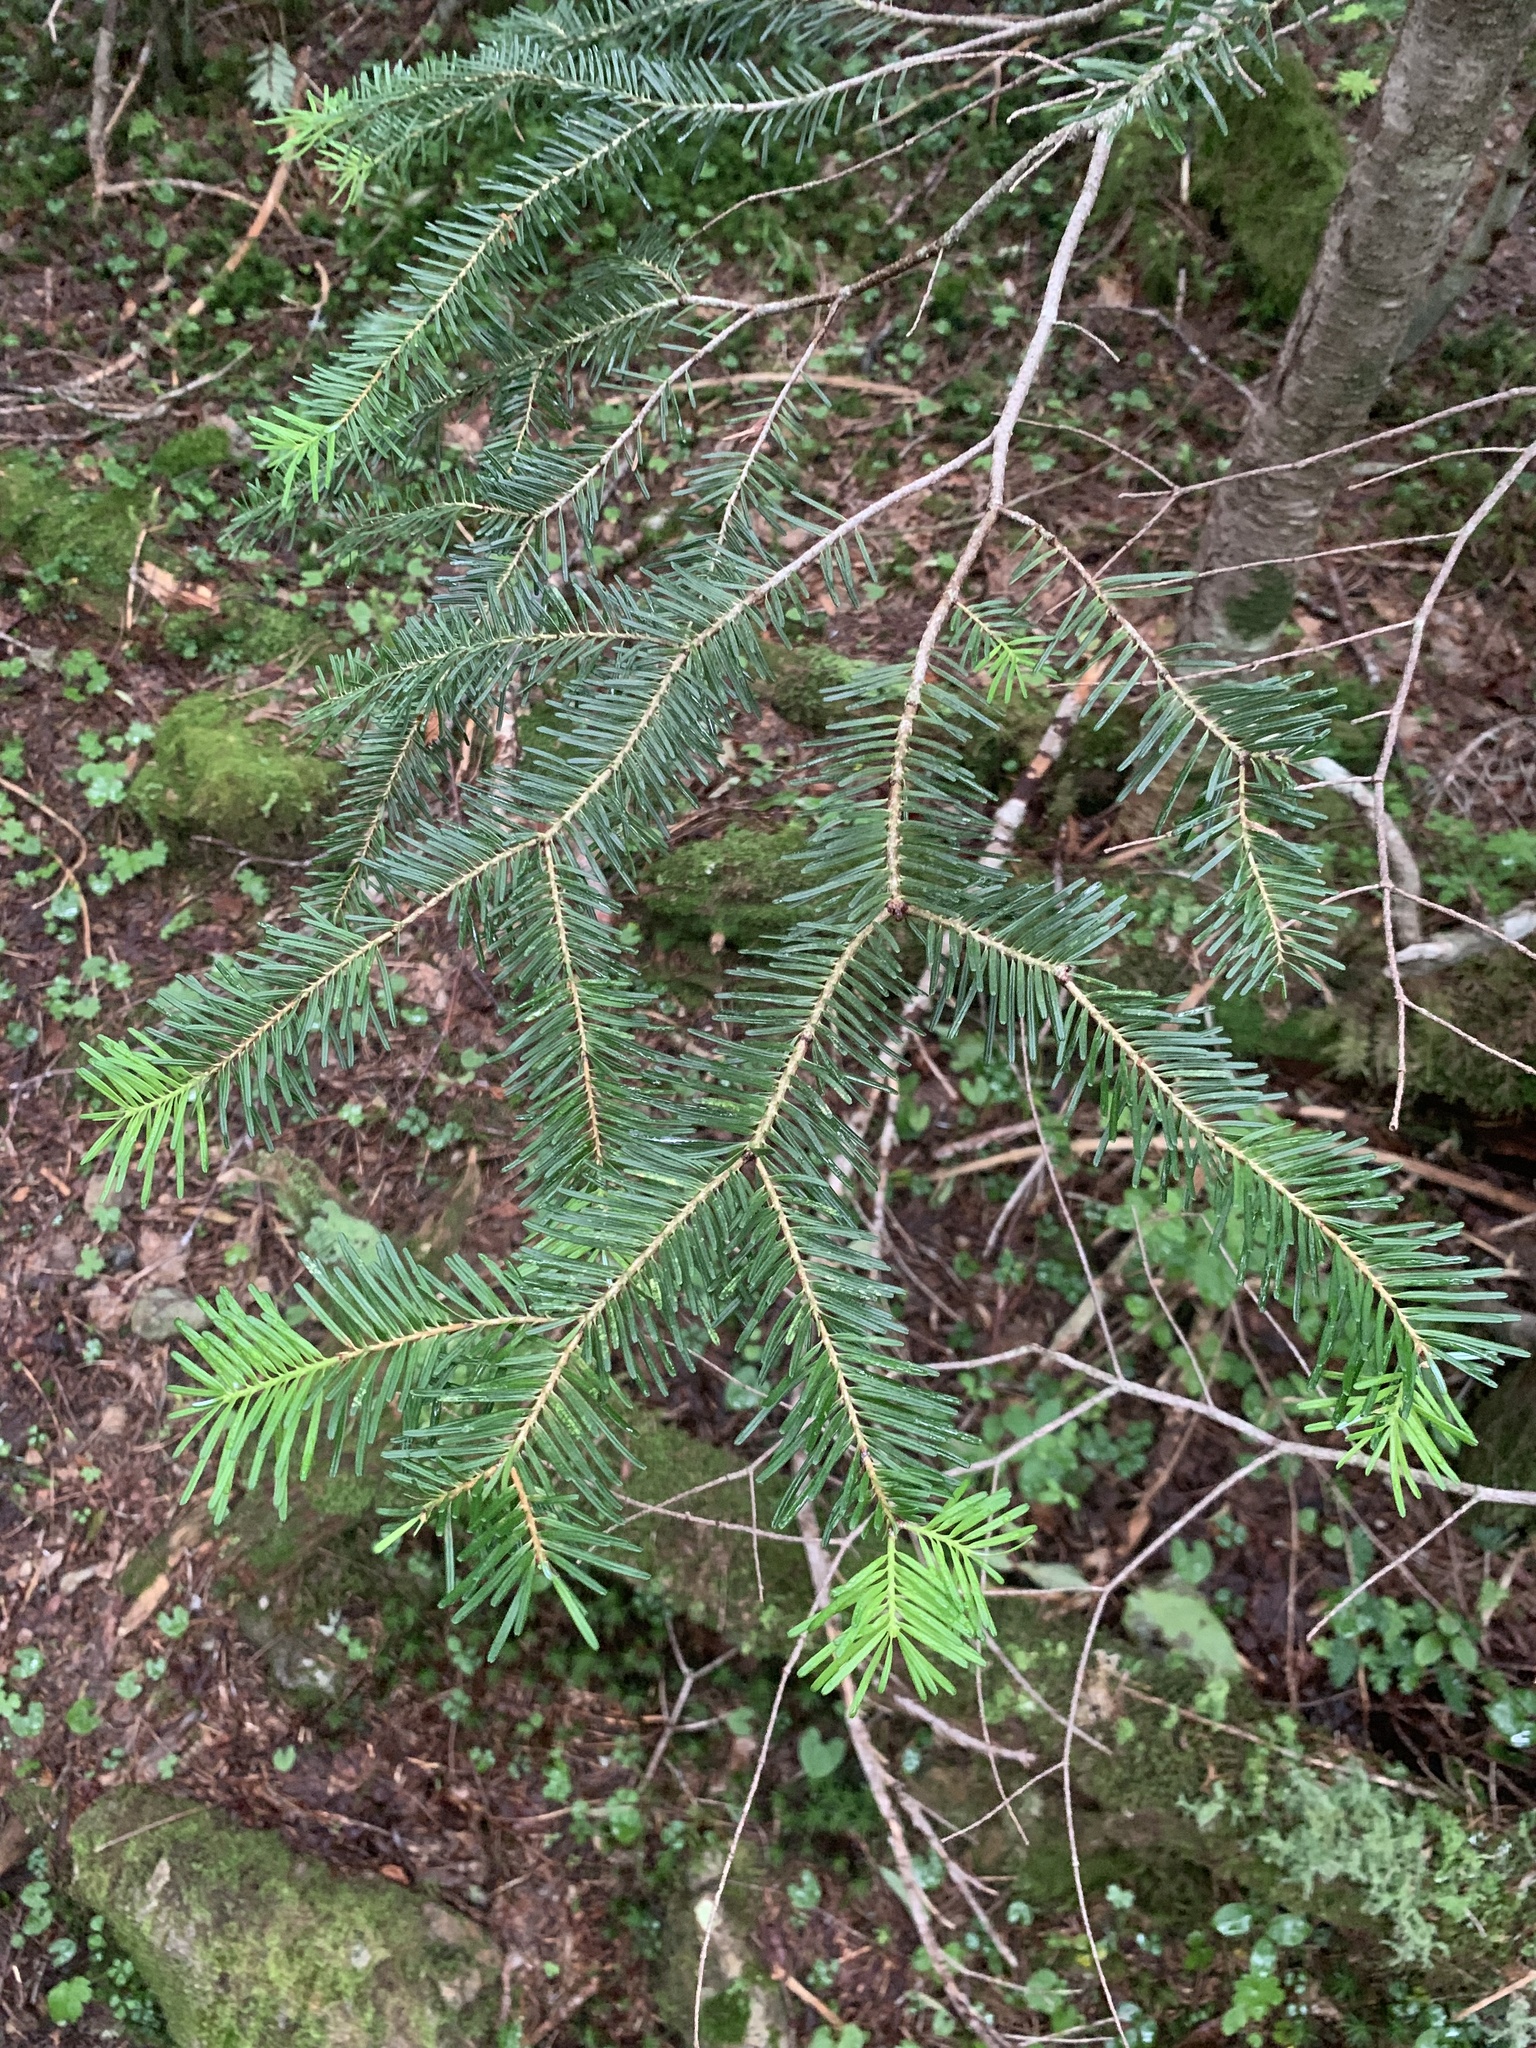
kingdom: Plantae
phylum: Tracheophyta
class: Pinopsida
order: Pinales
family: Pinaceae
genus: Abies
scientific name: Abies veitchii
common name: Veitch’s fir
